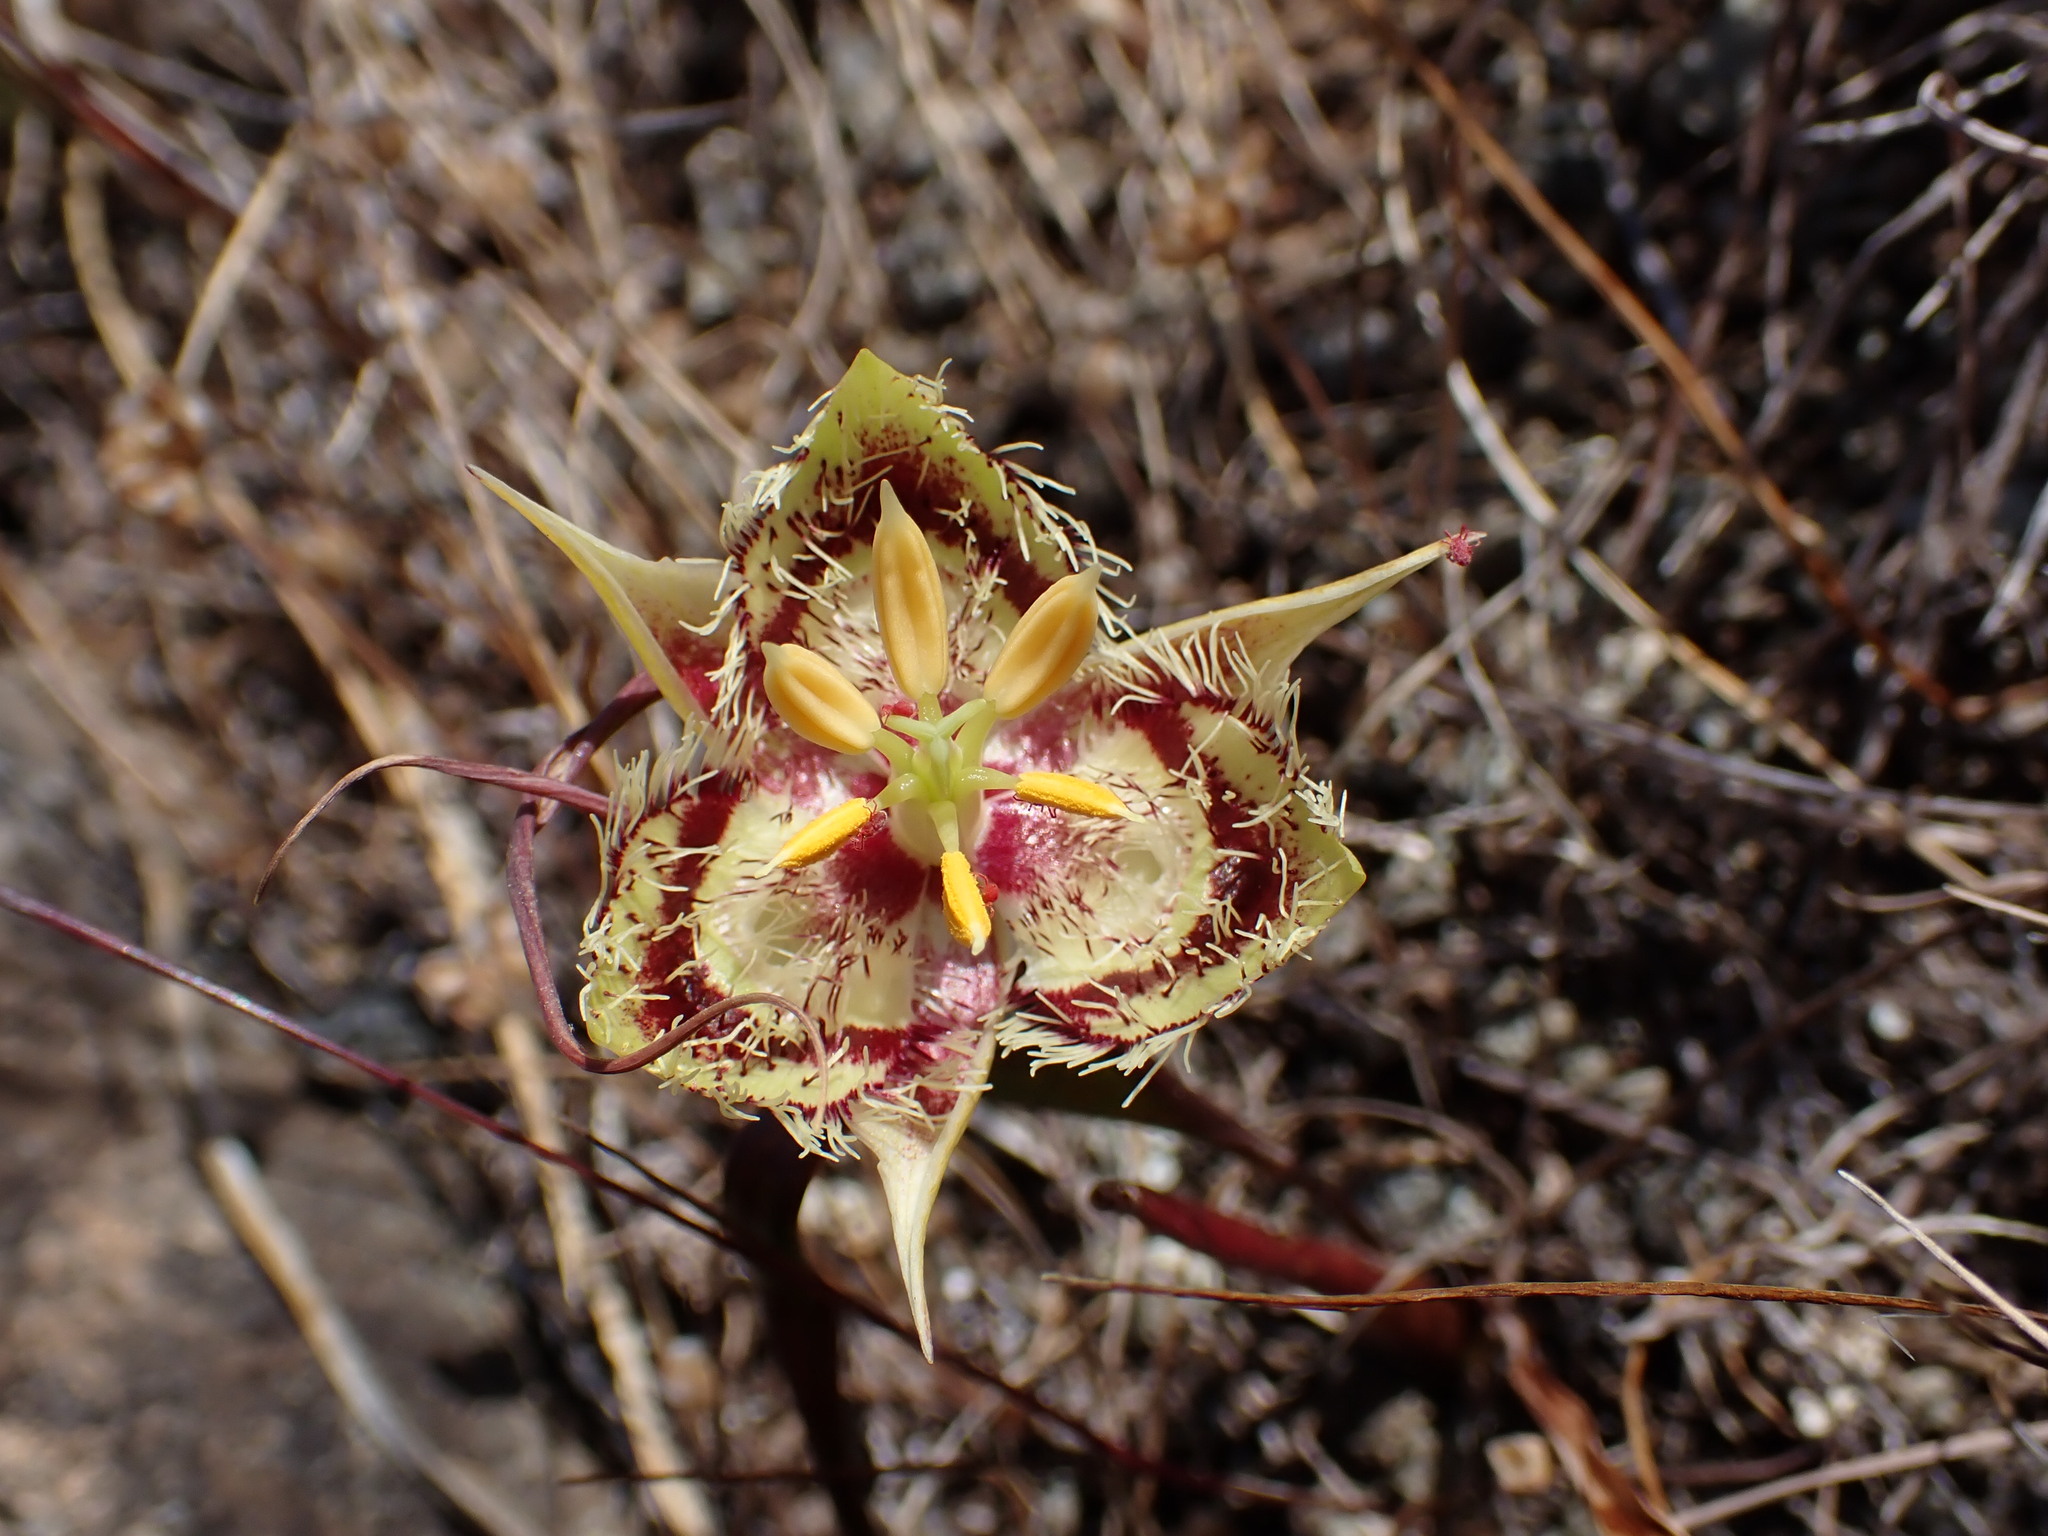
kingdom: Plantae
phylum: Tracheophyta
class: Liliopsida
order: Liliales
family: Liliaceae
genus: Calochortus
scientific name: Calochortus tiburonensis
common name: Tiburon mariposa-lily
